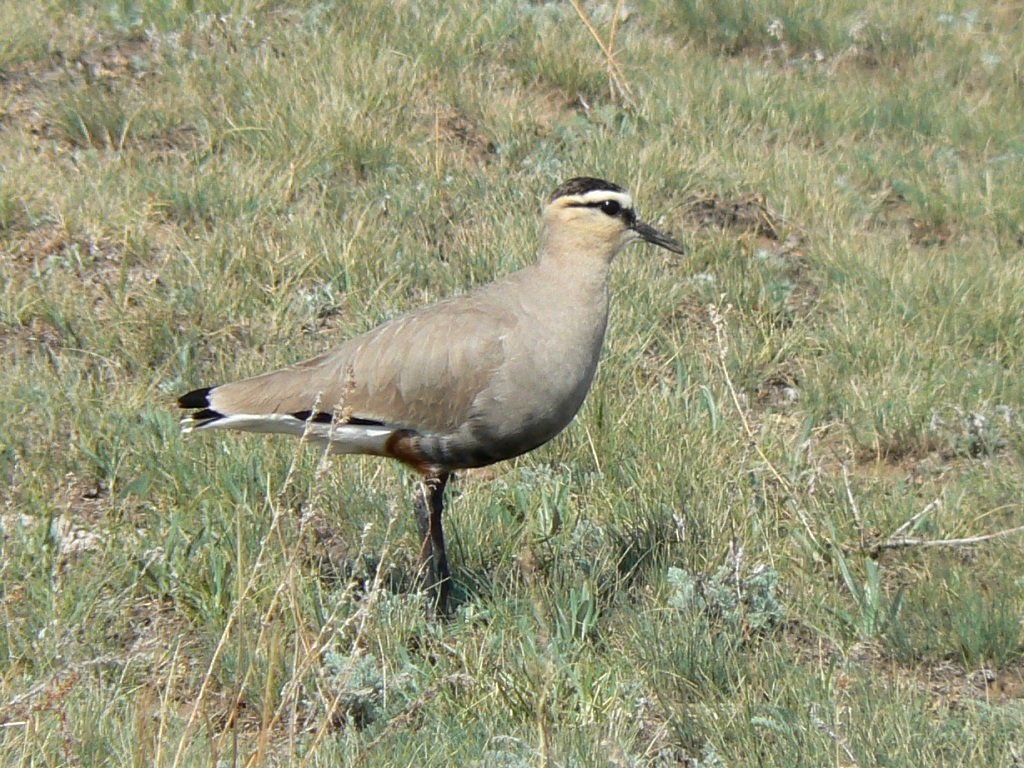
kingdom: Animalia
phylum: Chordata
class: Aves
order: Charadriiformes
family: Charadriidae
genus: Vanellus
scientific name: Vanellus gregarius
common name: Sociable lapwing
